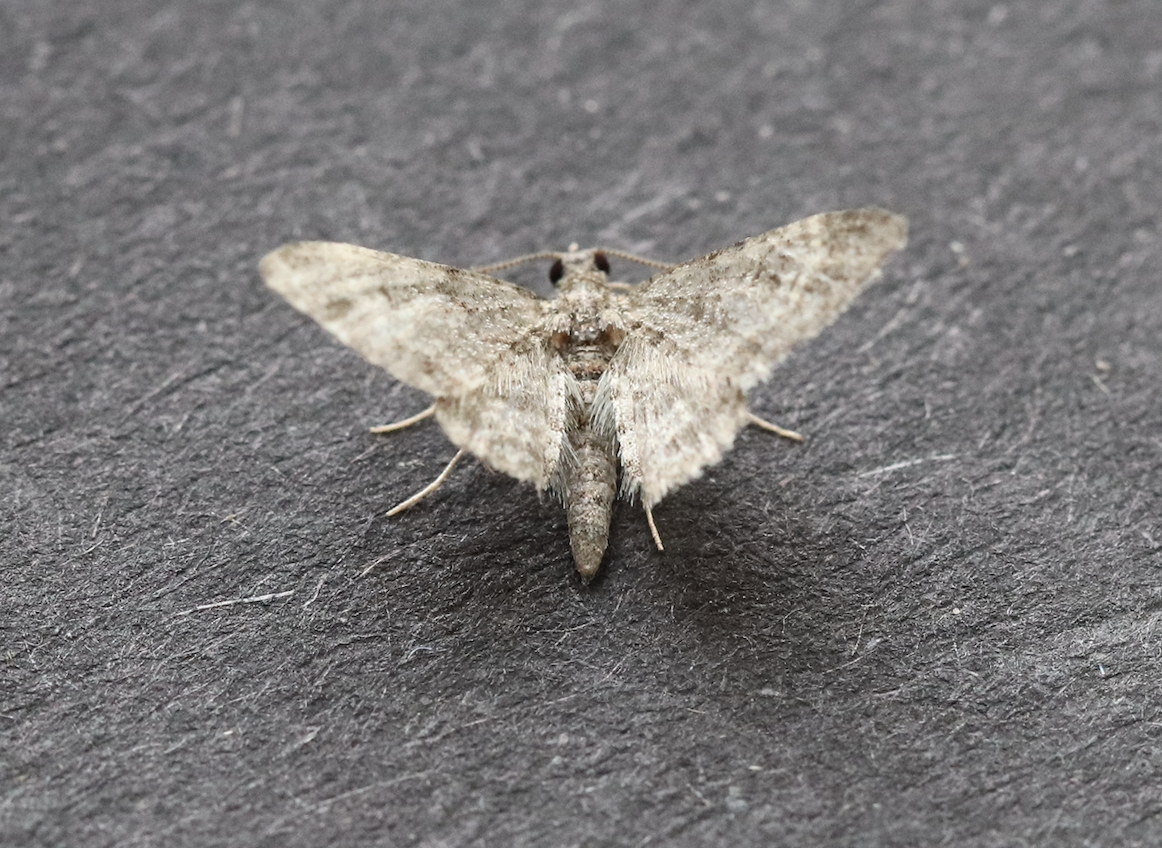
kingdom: Animalia
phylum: Arthropoda
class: Insecta
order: Lepidoptera
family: Geometridae
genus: Gymnoscelis
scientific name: Gymnoscelis rufifasciata
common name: Double-striped pug
